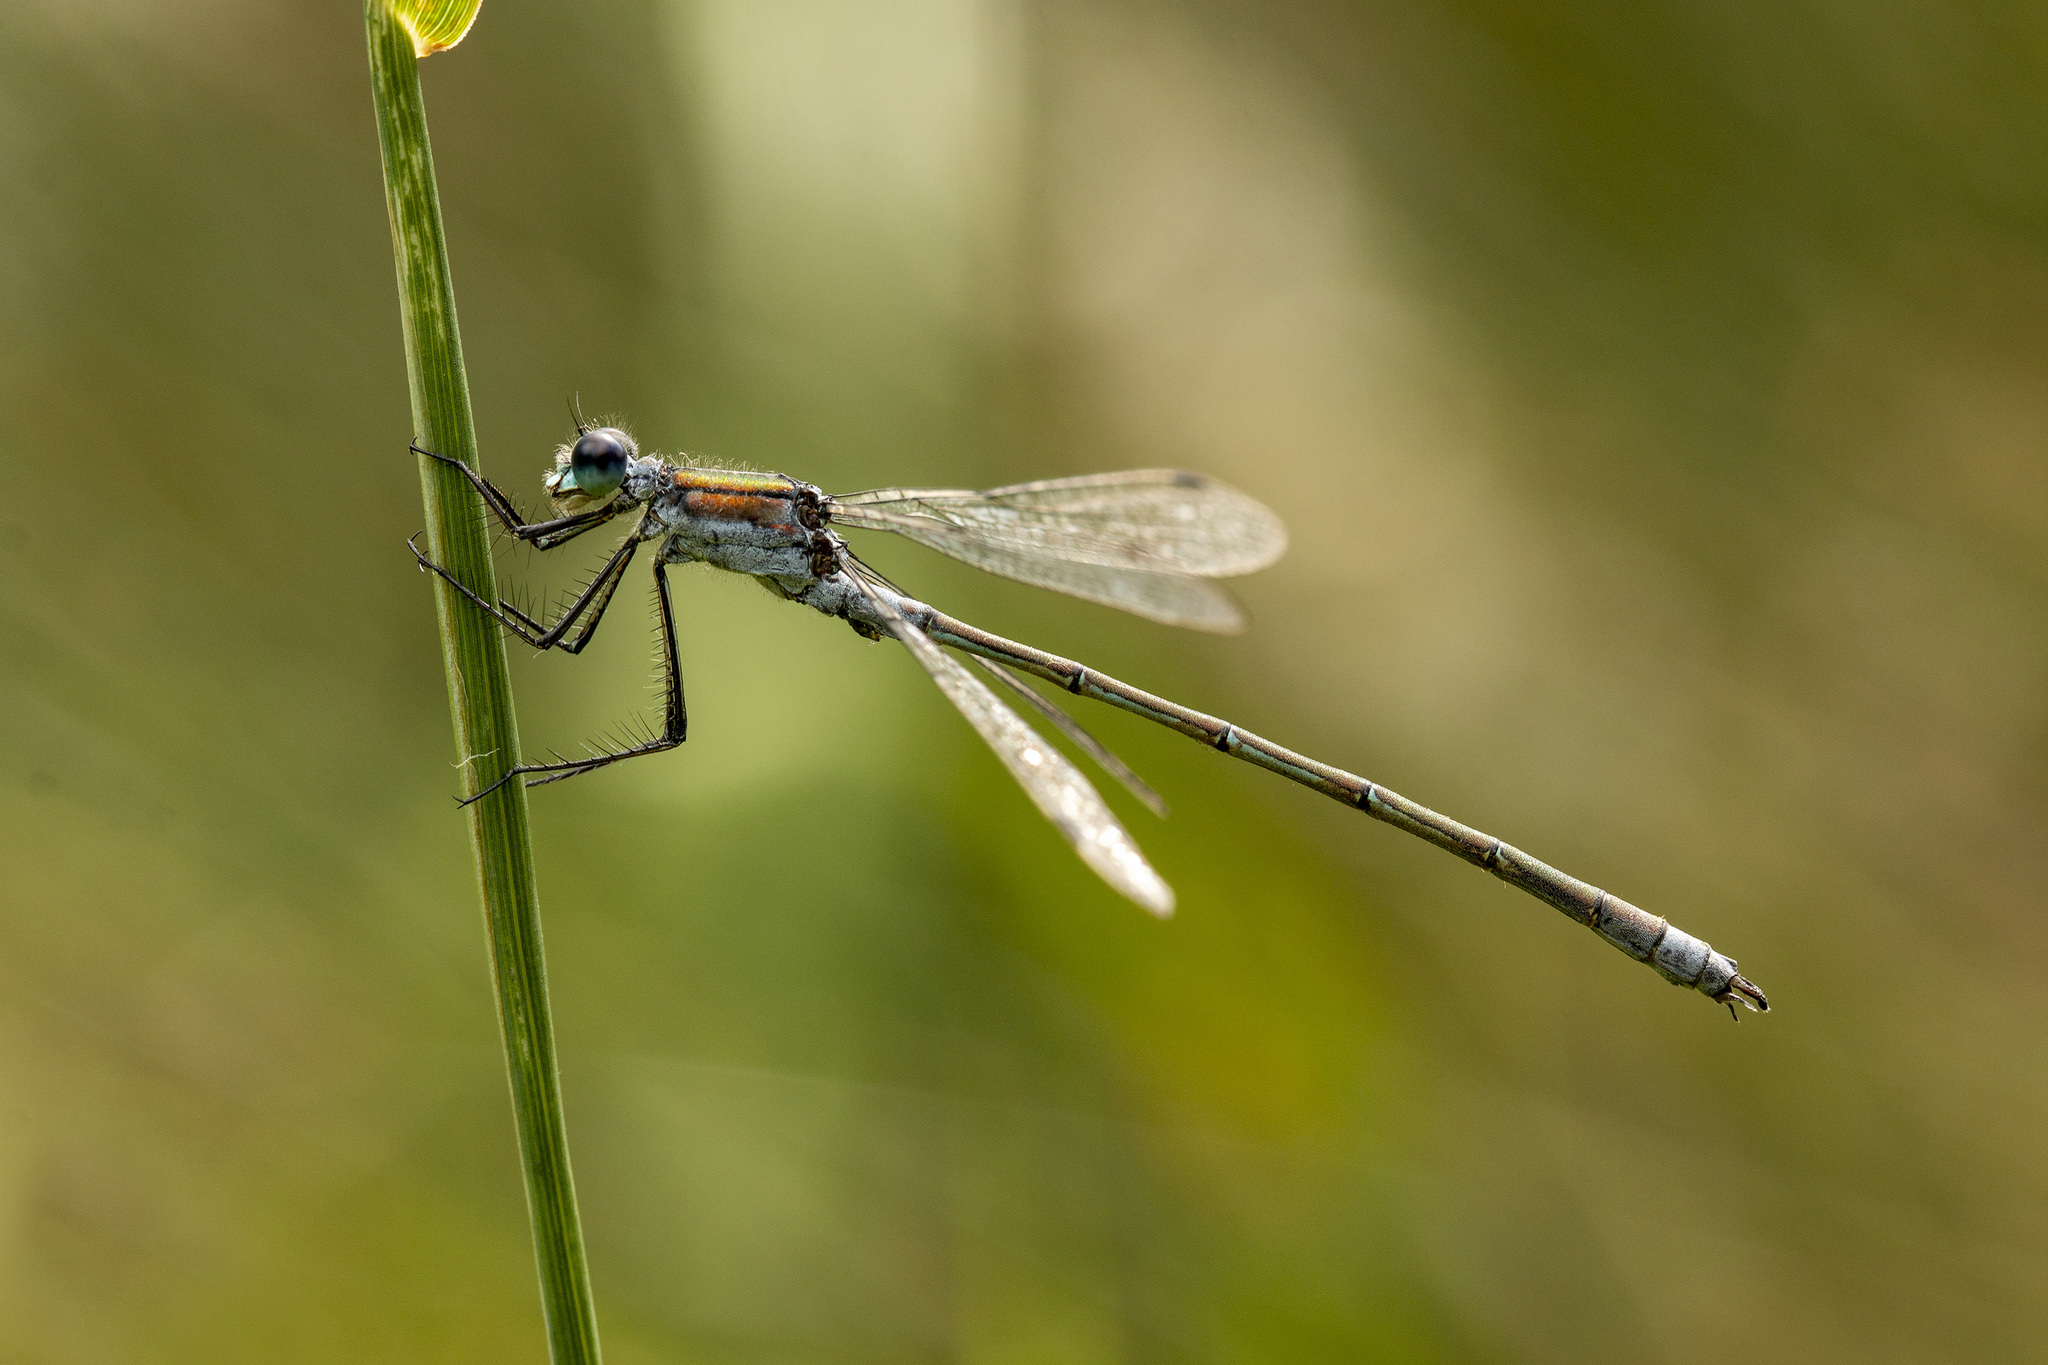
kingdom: Animalia
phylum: Arthropoda
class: Insecta
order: Odonata
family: Lestidae
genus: Lestes
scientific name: Lestes sponsa
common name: Common spreadwing
